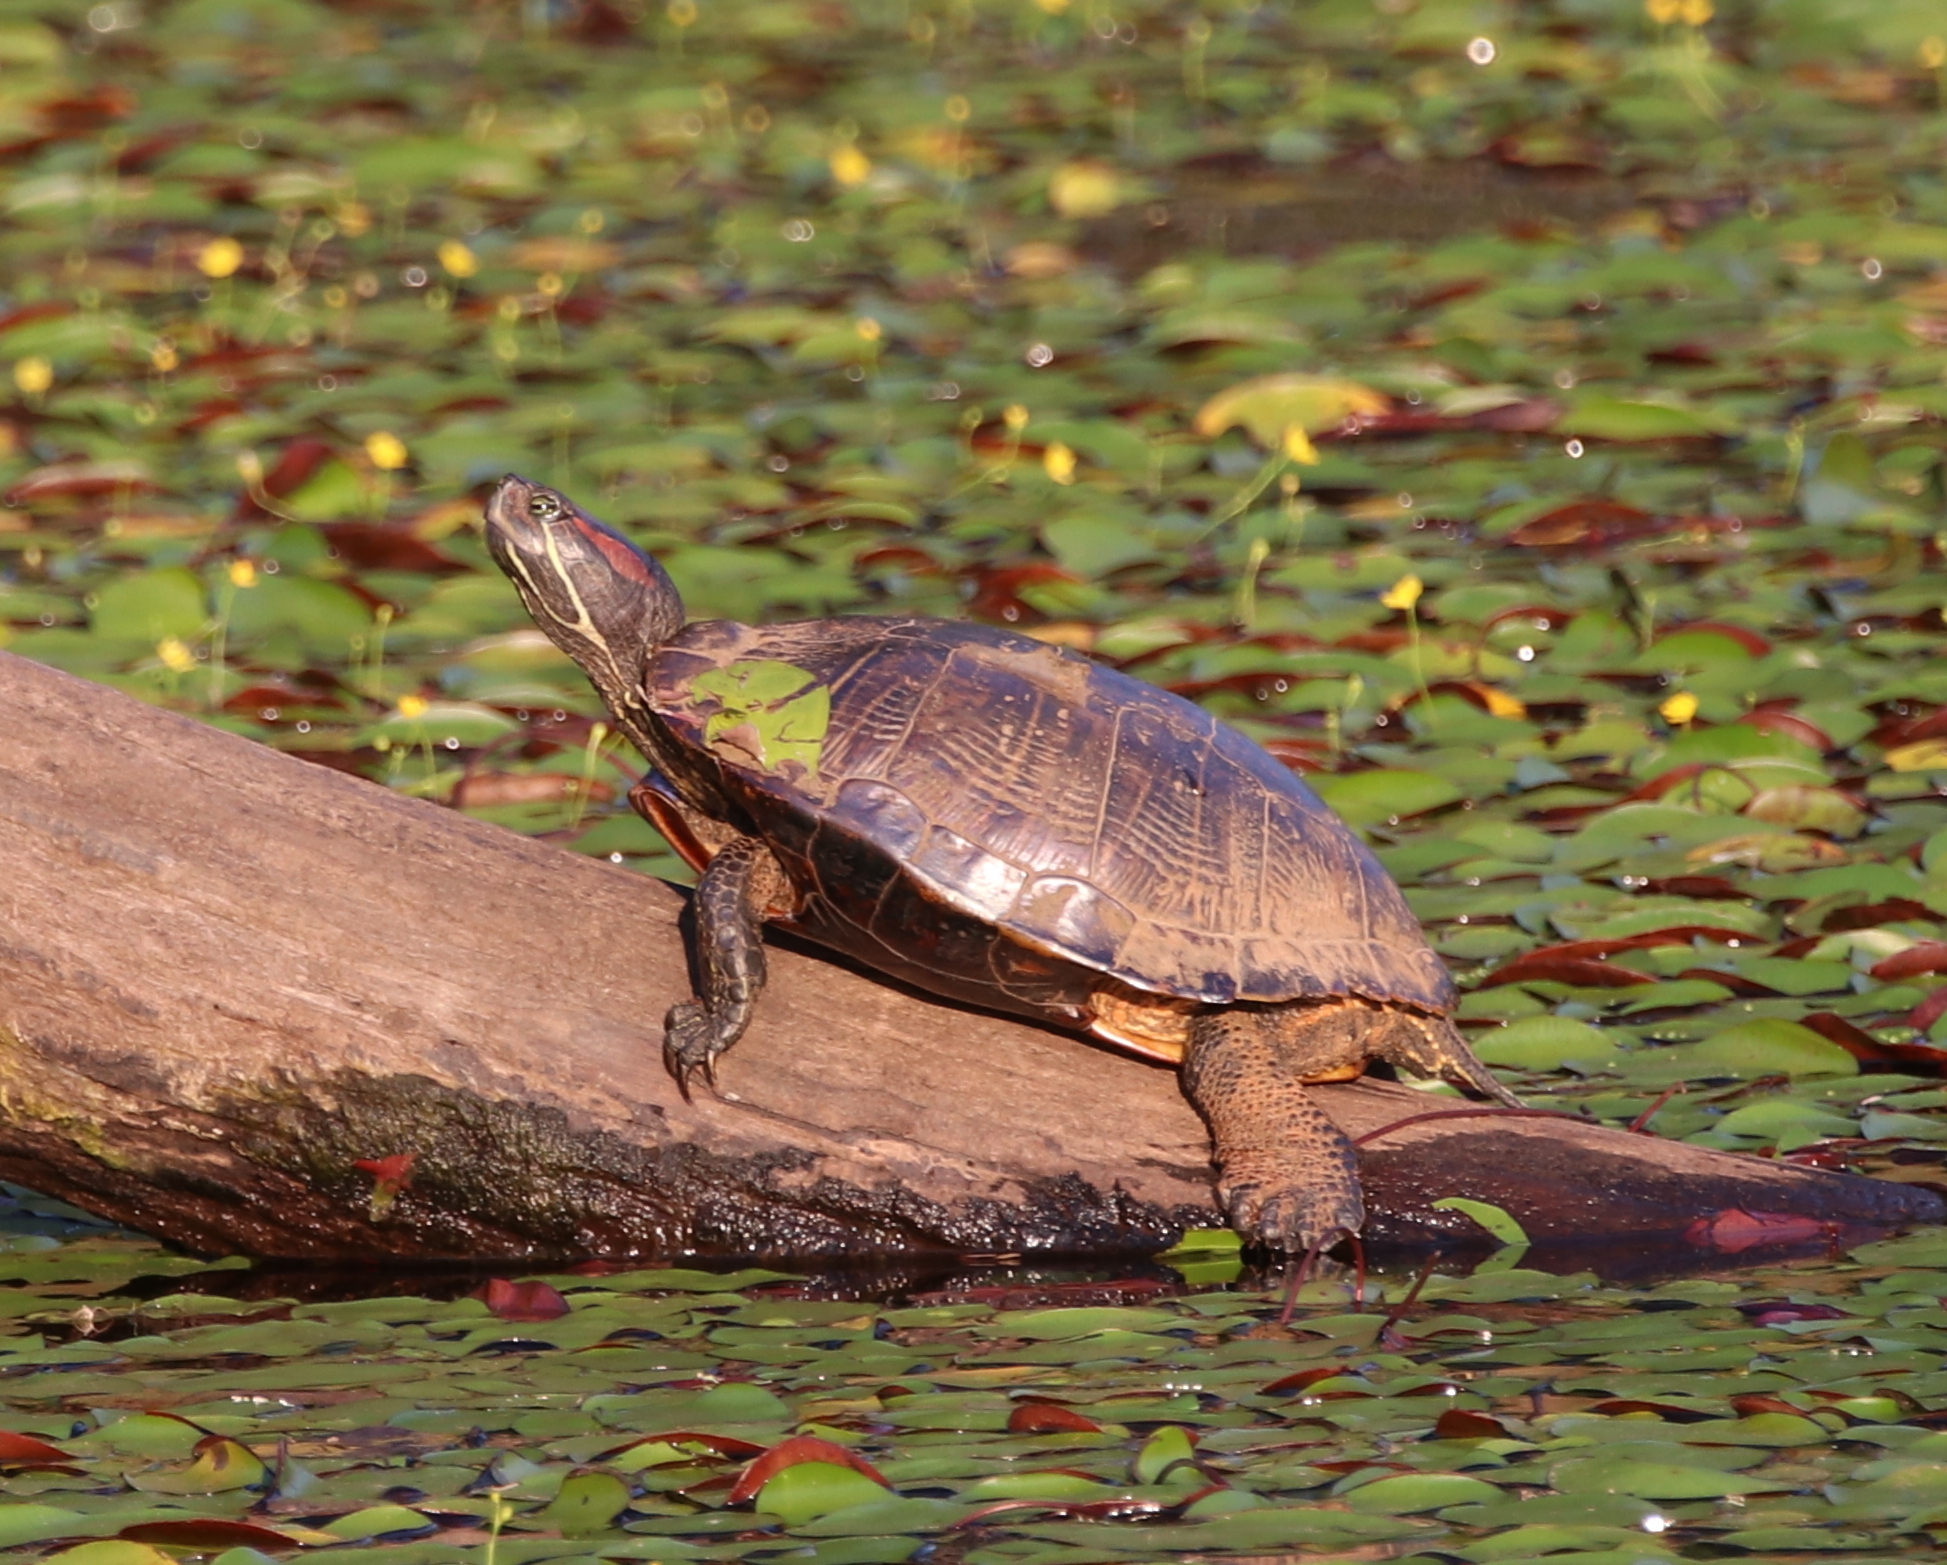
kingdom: Animalia
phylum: Chordata
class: Testudines
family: Emydidae
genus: Trachemys
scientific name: Trachemys scripta
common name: Slider
